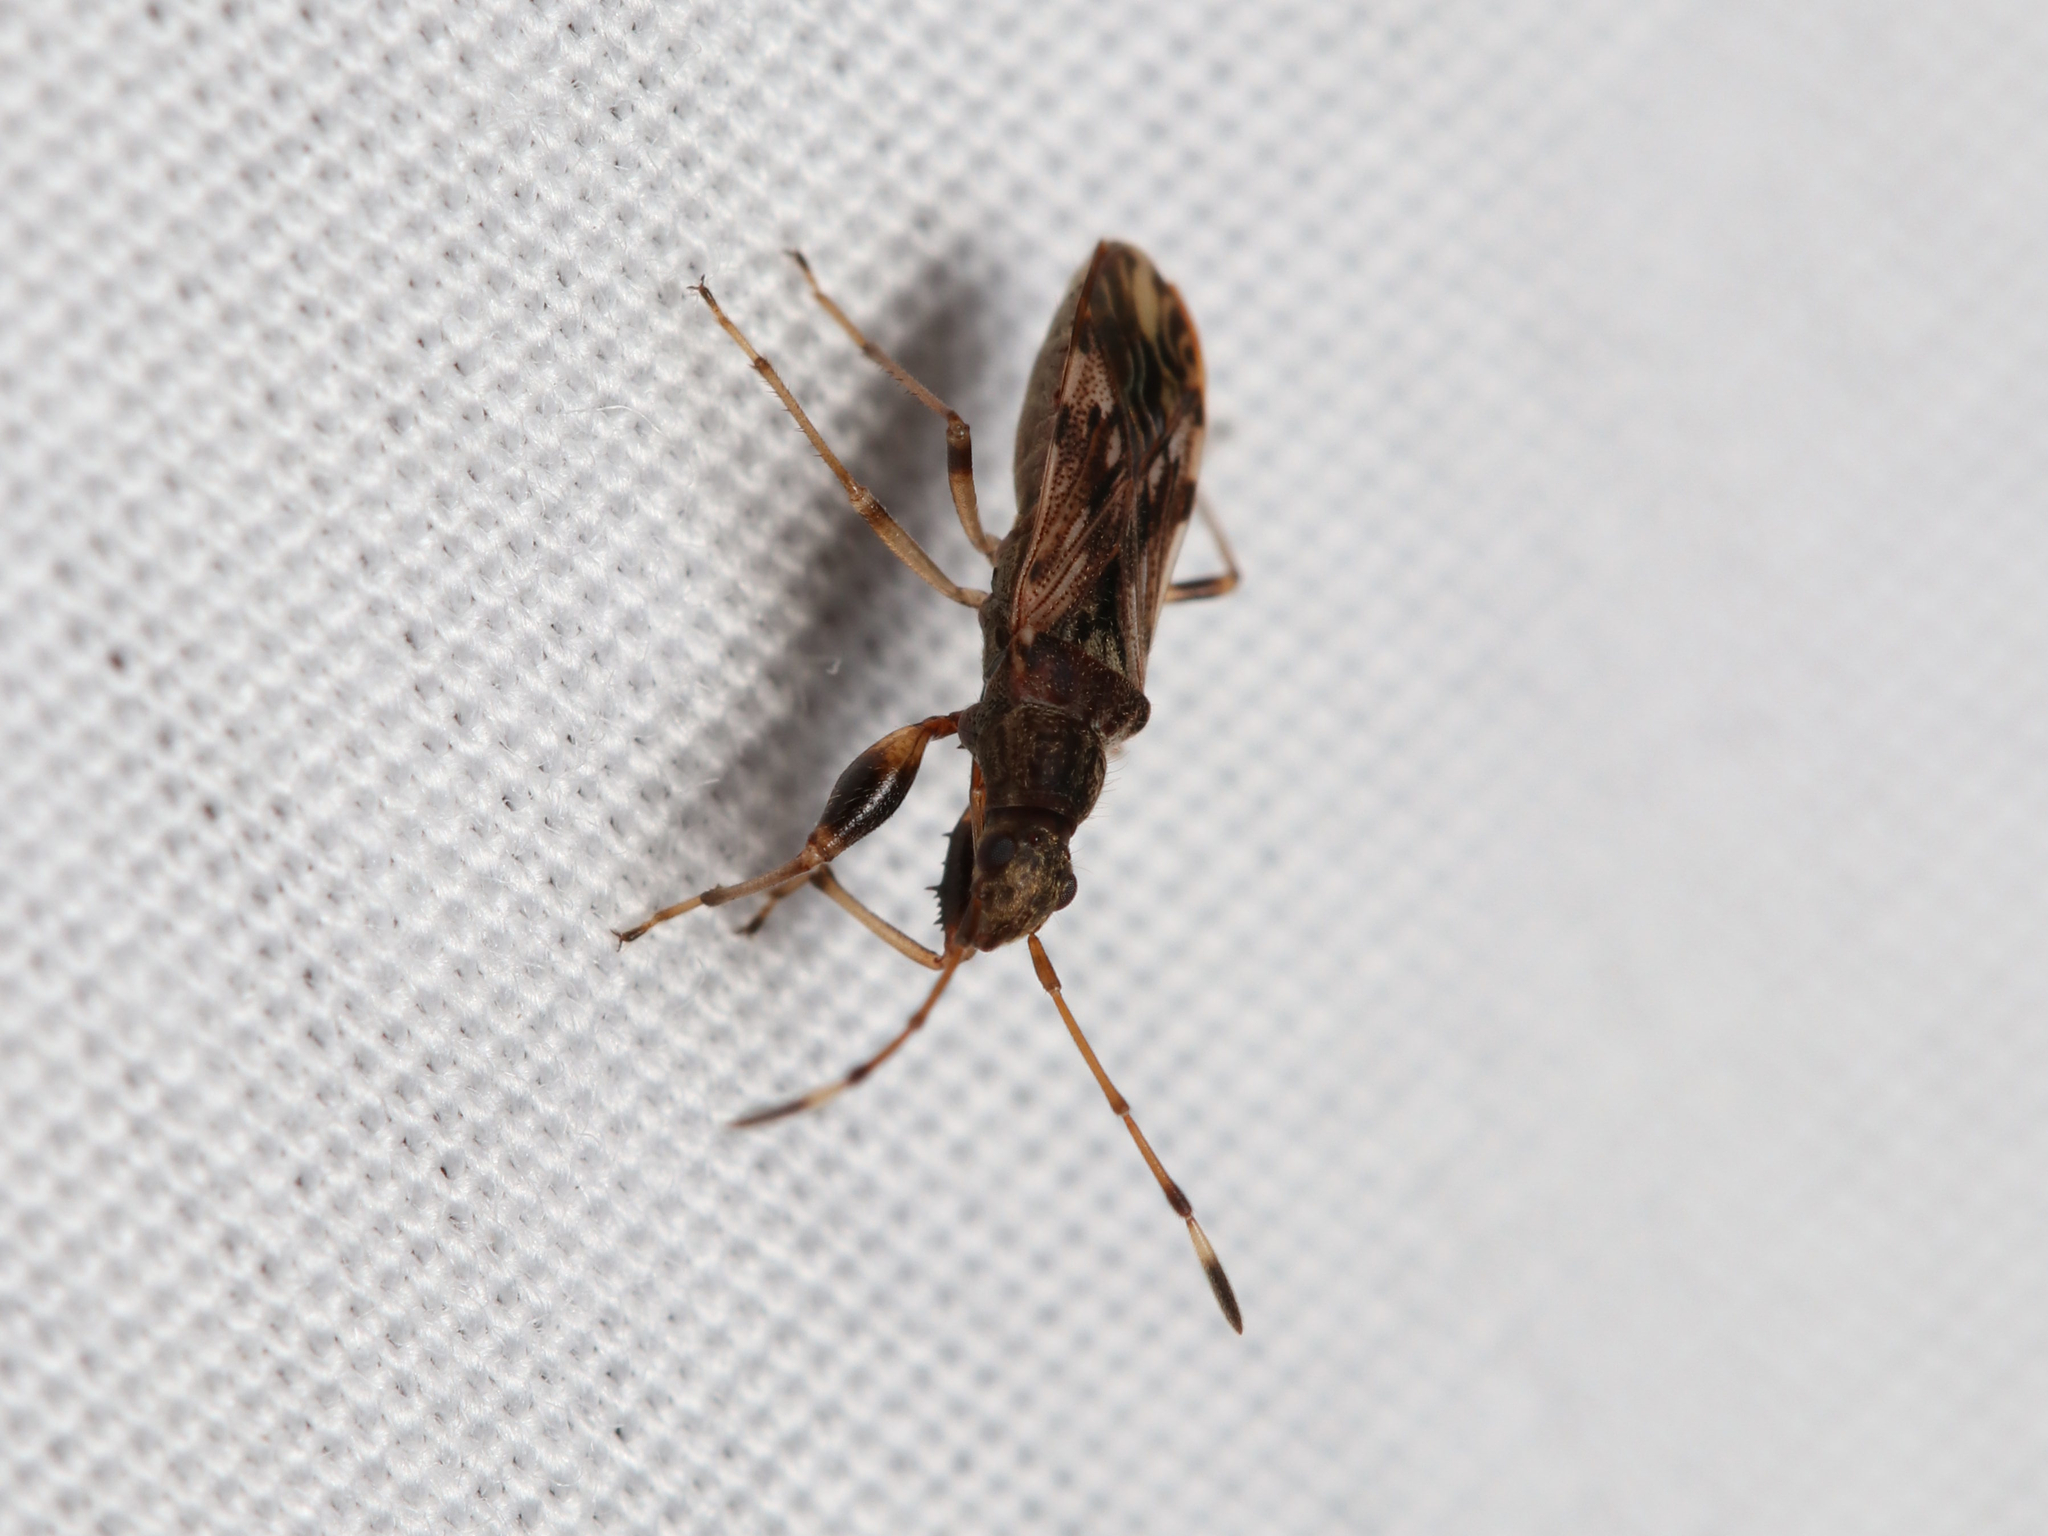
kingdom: Animalia
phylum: Arthropoda
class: Insecta
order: Hemiptera
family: Rhyparochromidae
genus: Neopamera
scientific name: Neopamera albocincta
